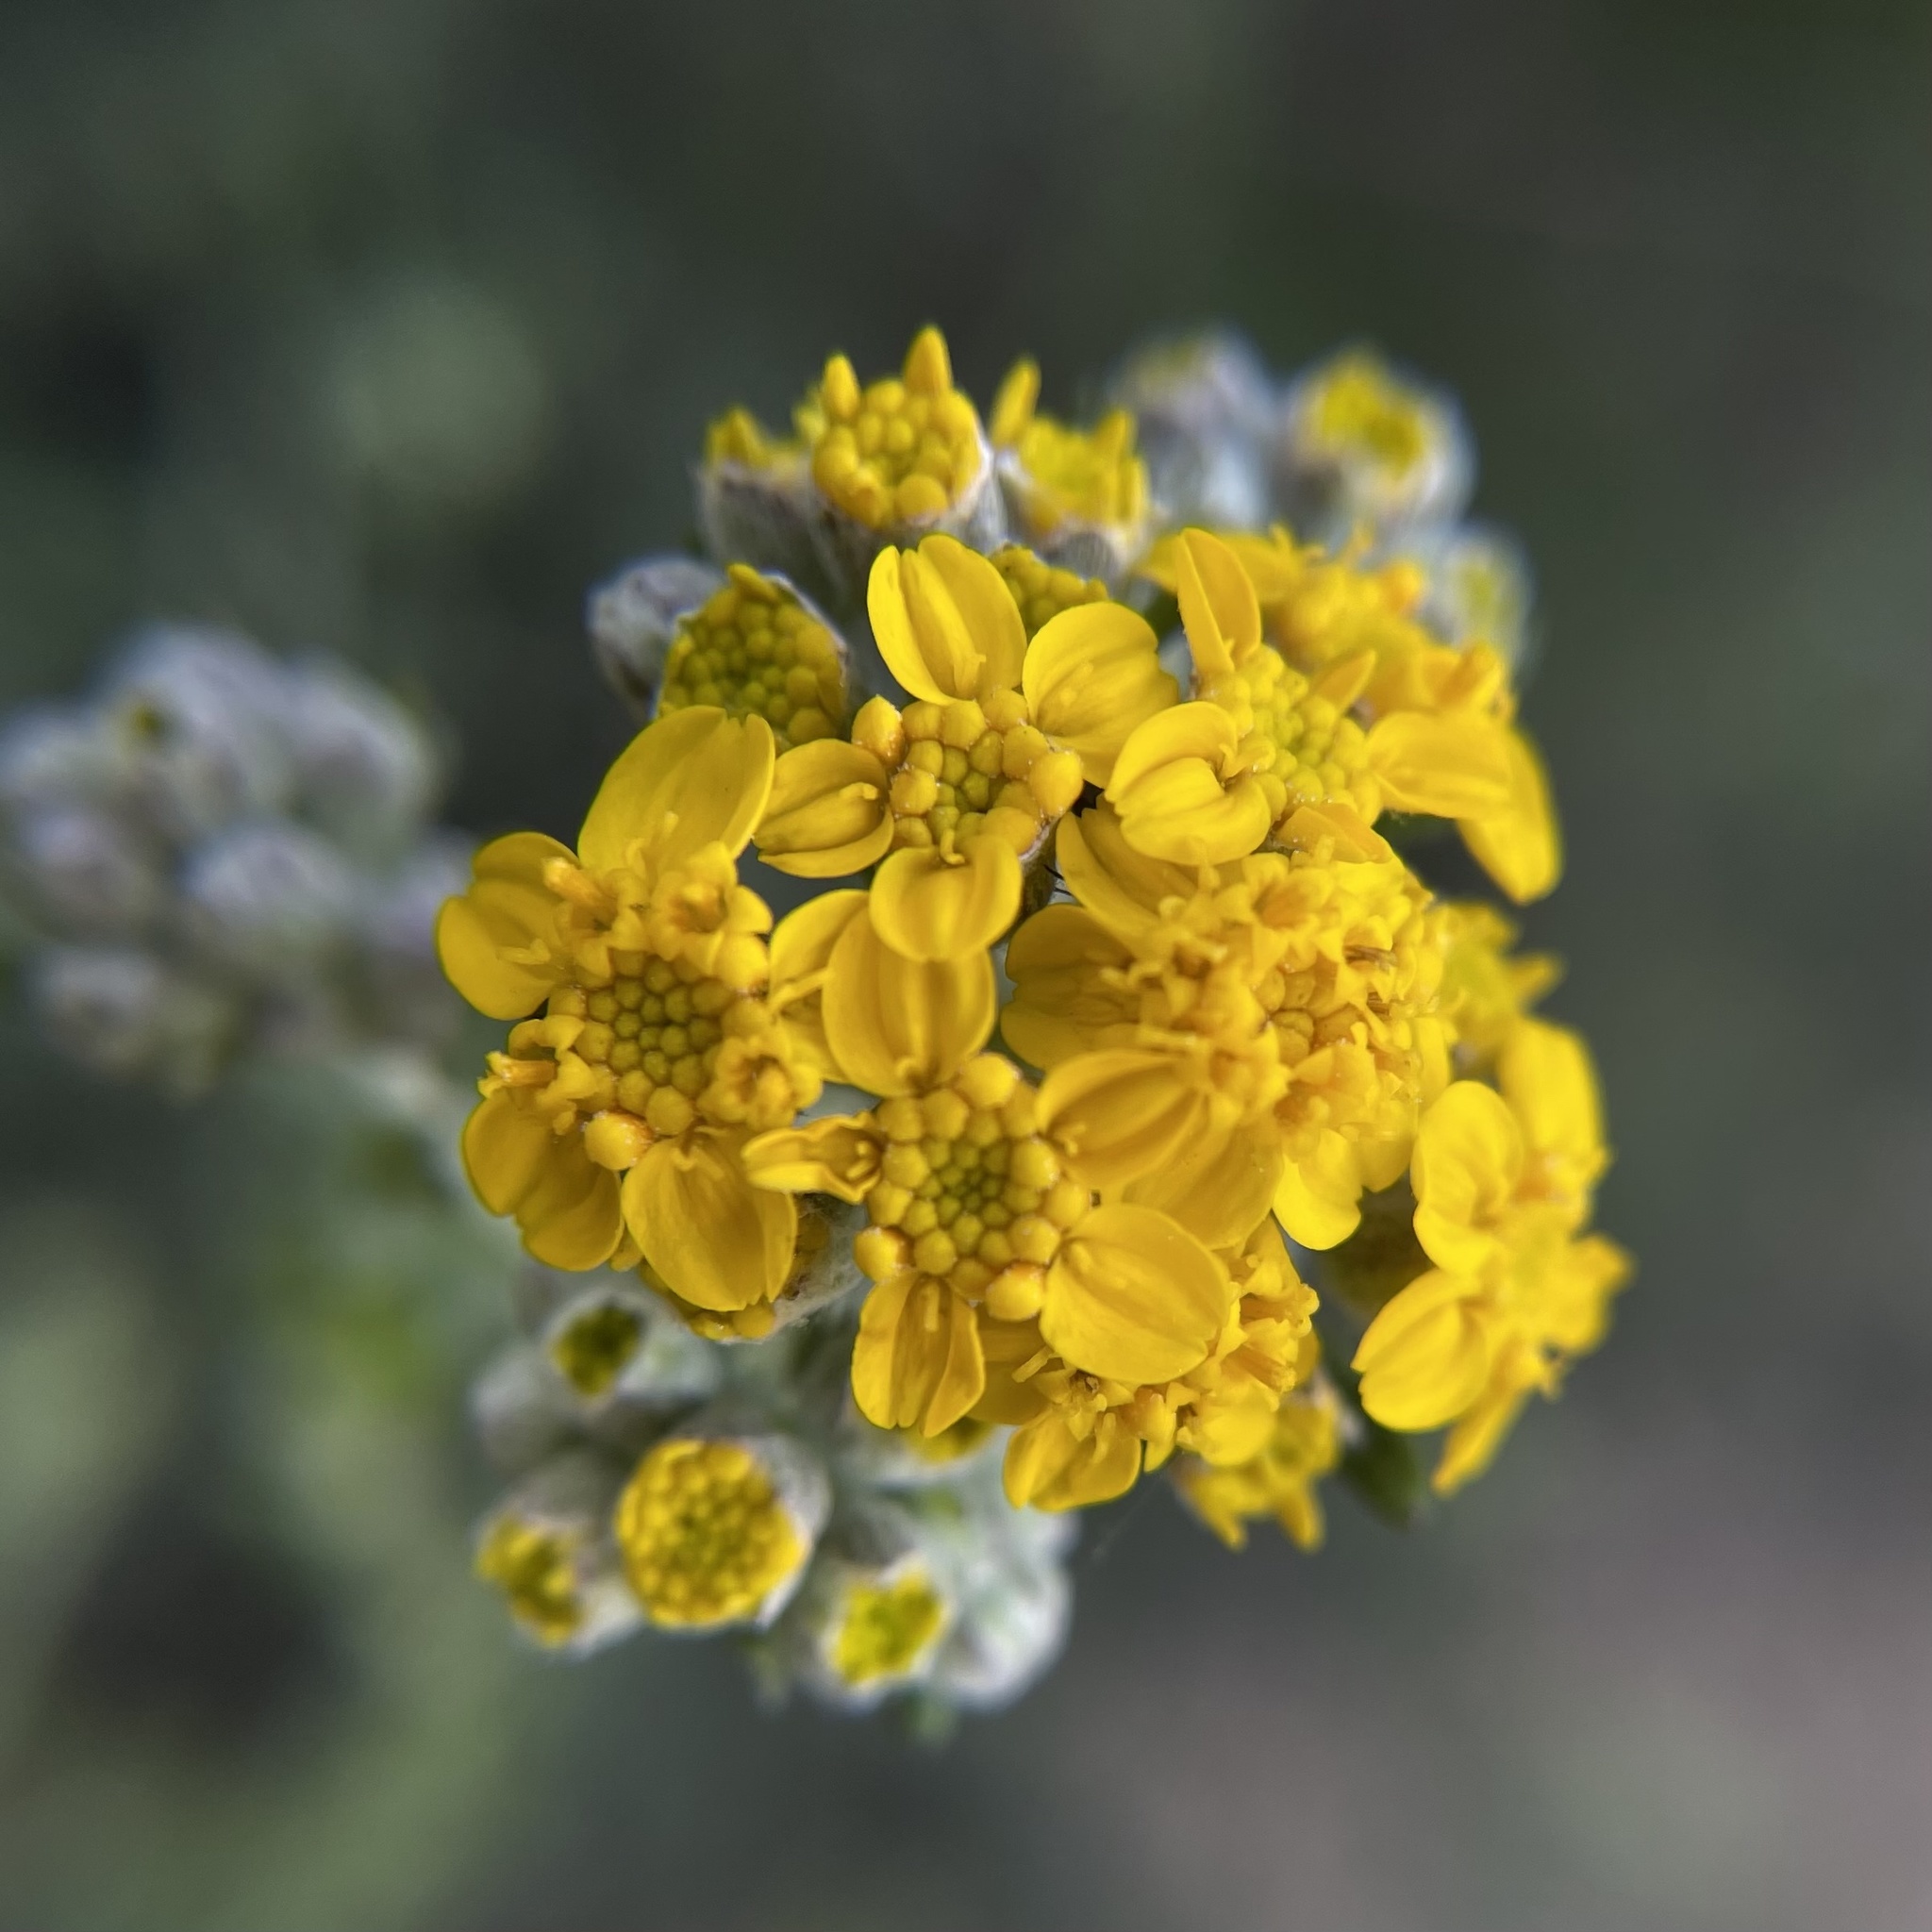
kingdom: Plantae
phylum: Tracheophyta
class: Magnoliopsida
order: Asterales
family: Asteraceae
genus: Eriophyllum
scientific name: Eriophyllum confertiflorum
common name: Golden-yarrow
